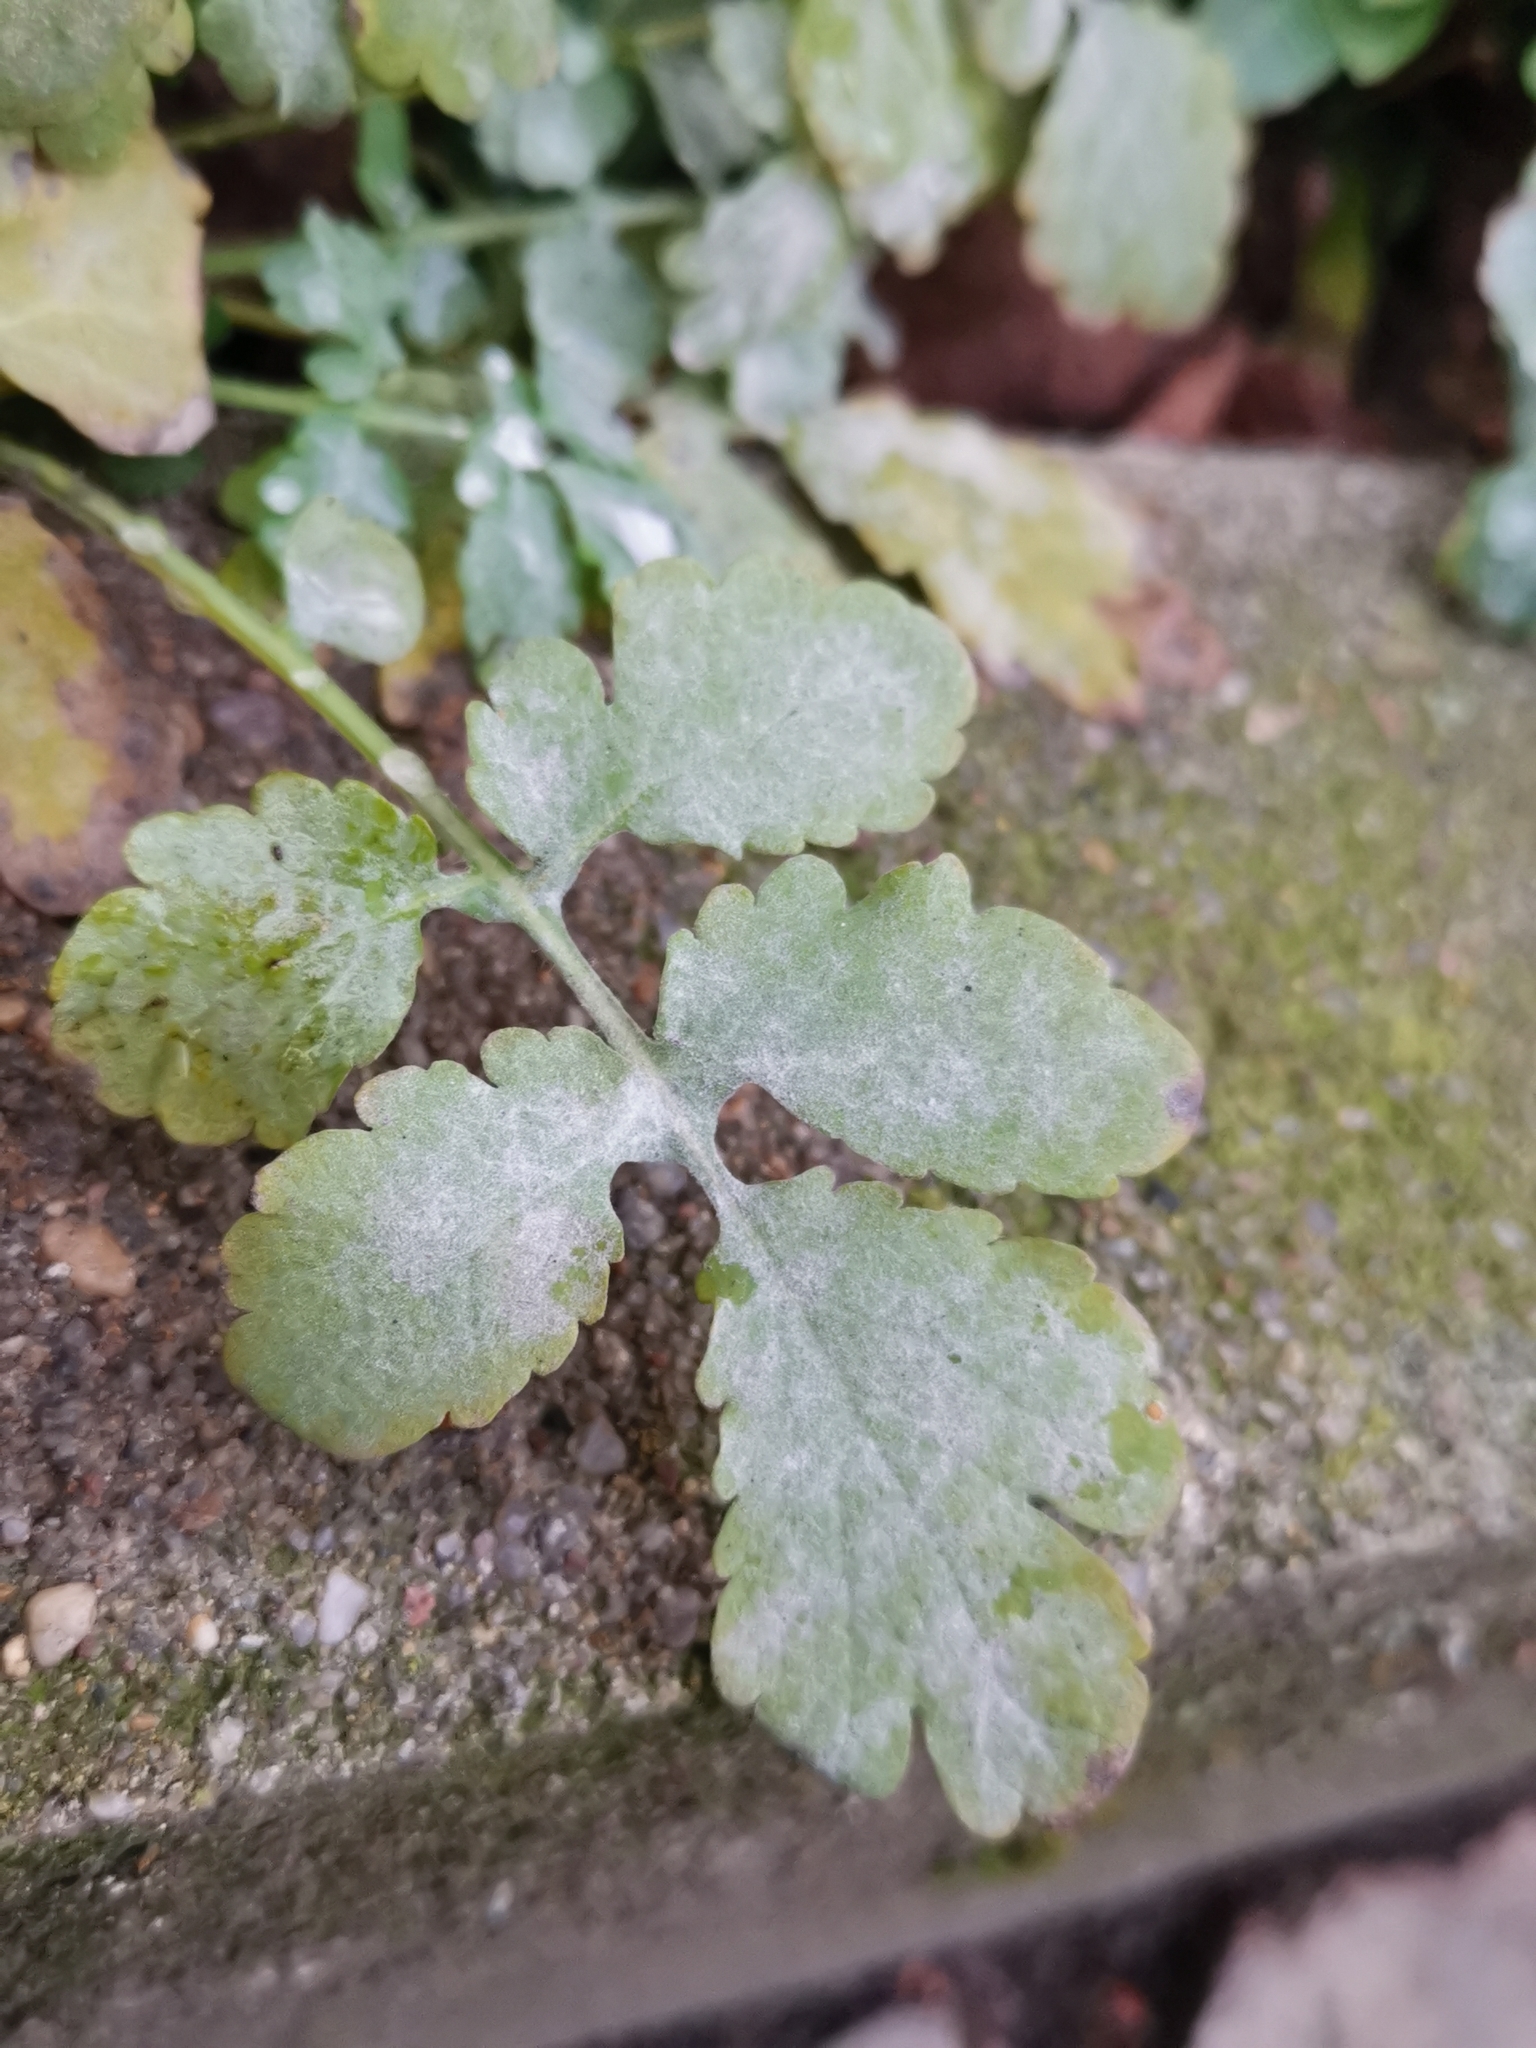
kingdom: Fungi
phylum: Ascomycota
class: Leotiomycetes
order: Helotiales
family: Erysiphaceae
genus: Erysiphe
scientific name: Erysiphe macleayae
